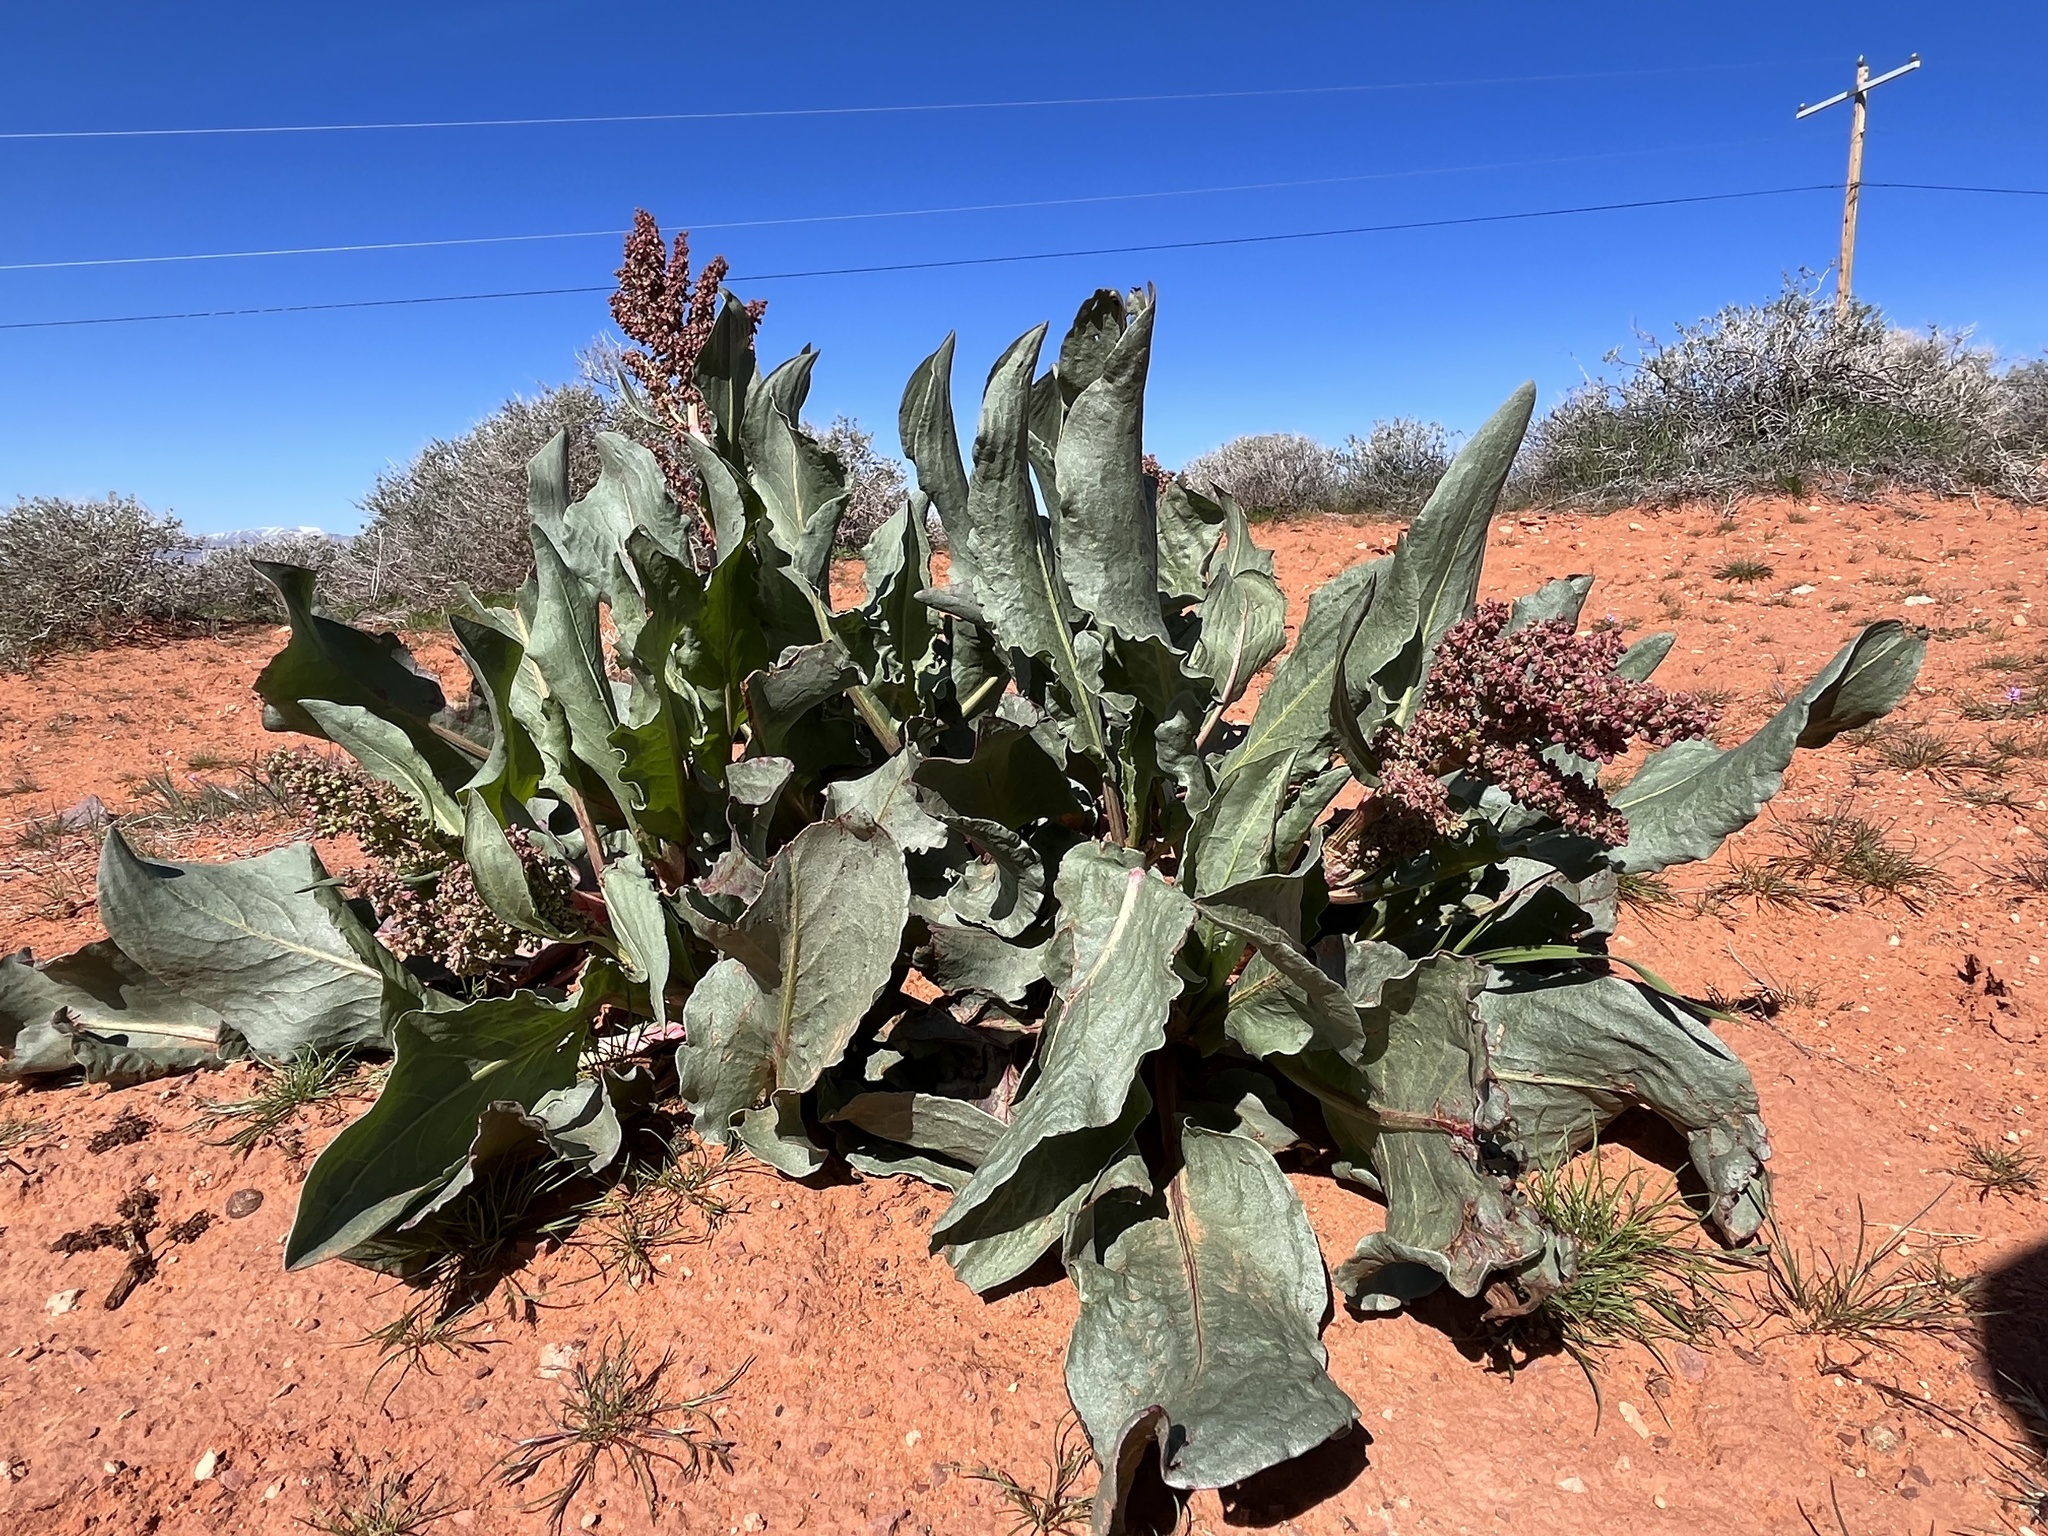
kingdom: Plantae
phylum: Tracheophyta
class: Magnoliopsida
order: Caryophyllales
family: Polygonaceae
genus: Rumex
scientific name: Rumex hymenosepalus
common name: Ganagra
